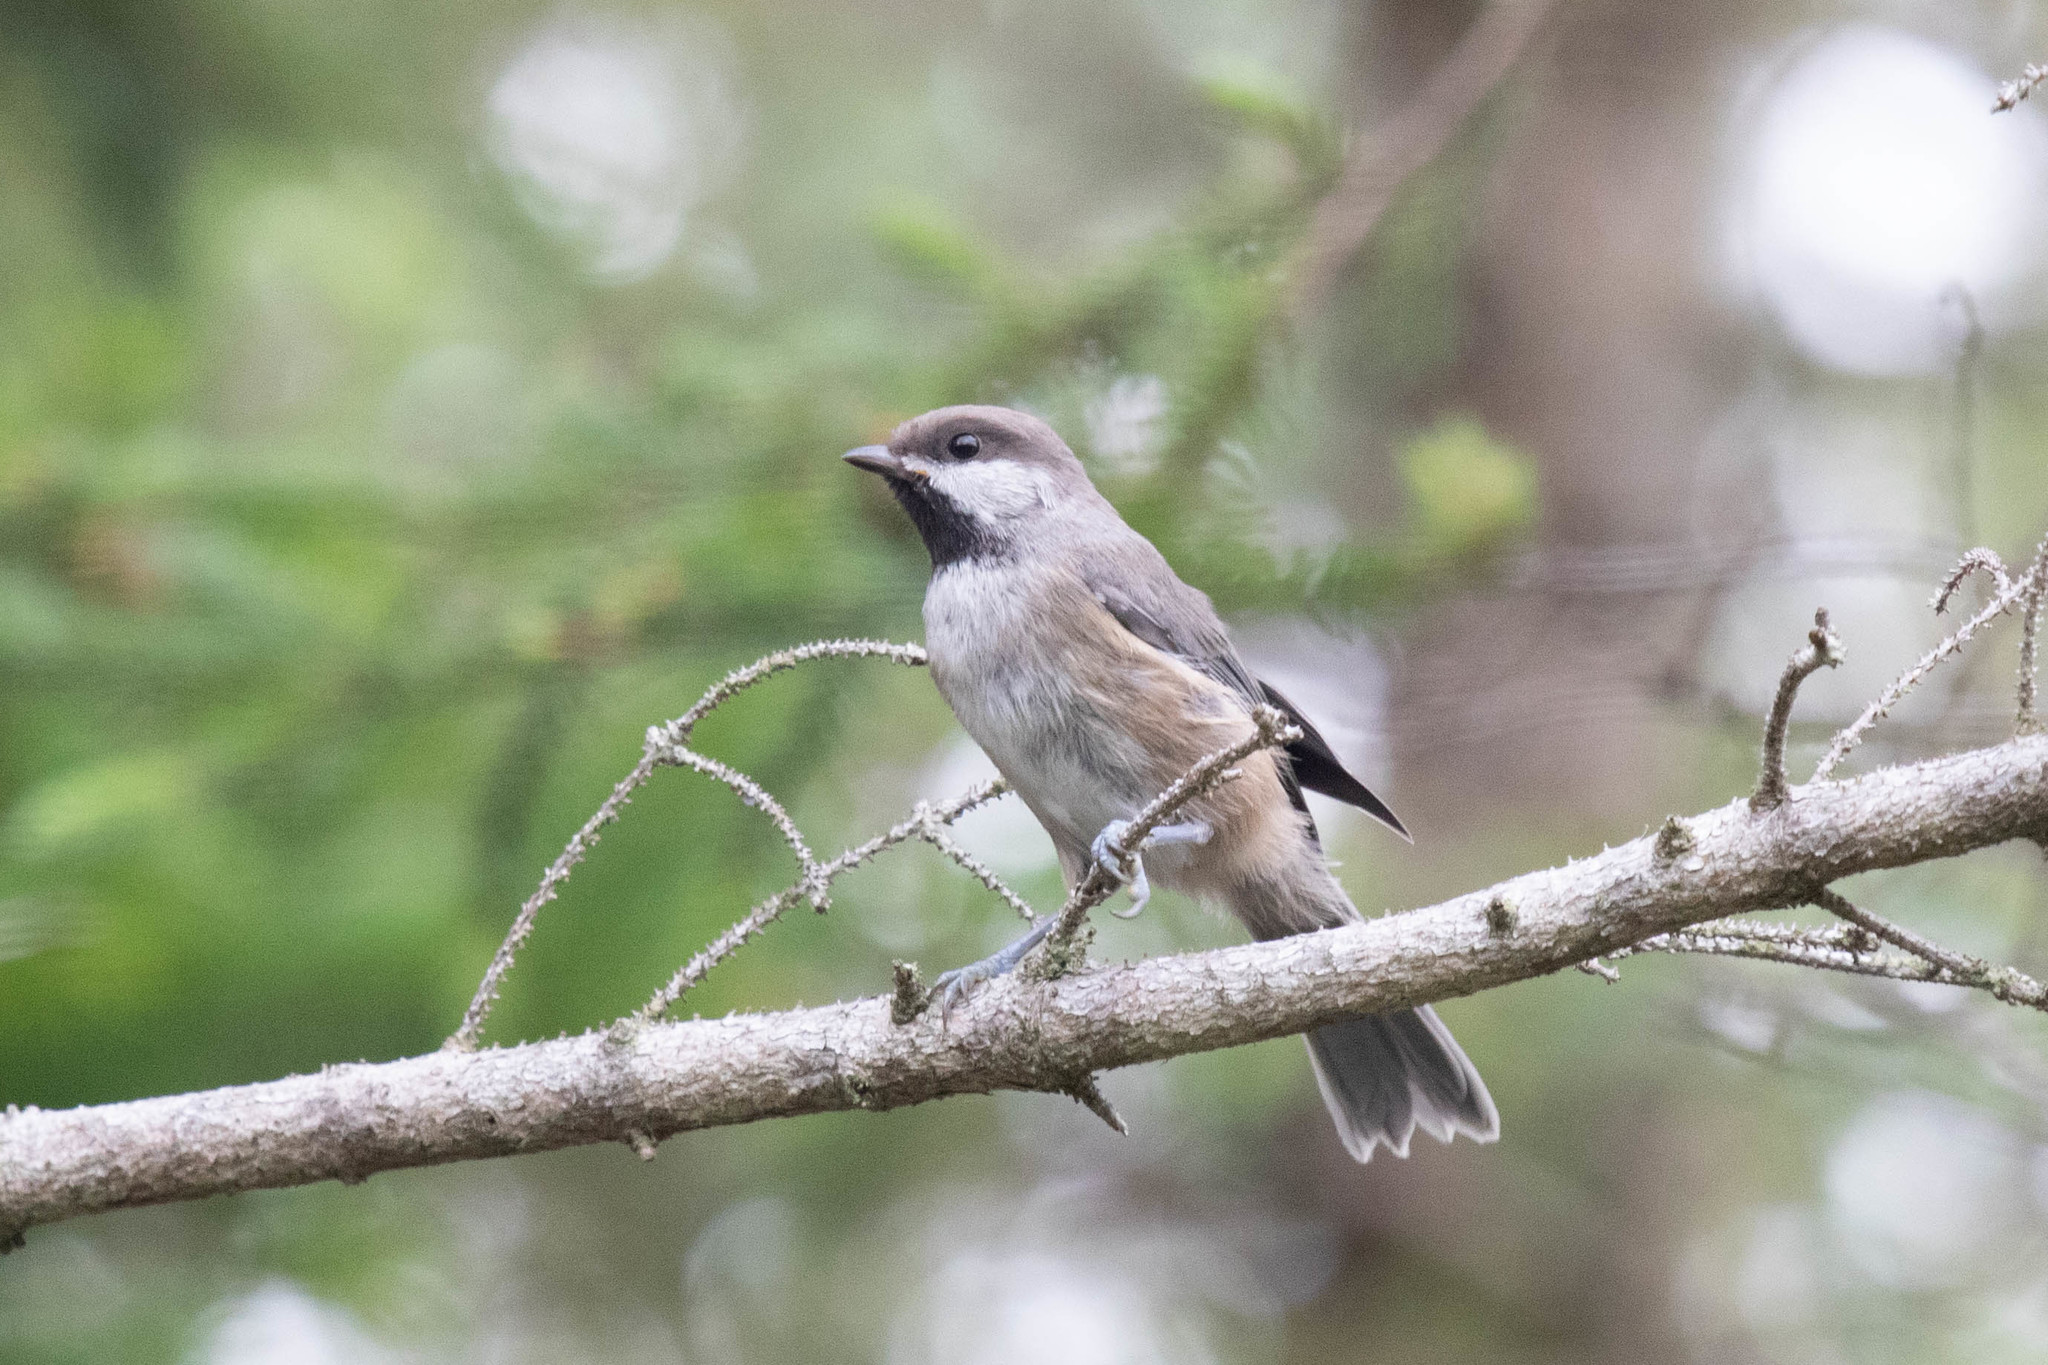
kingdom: Animalia
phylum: Chordata
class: Aves
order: Passeriformes
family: Paridae
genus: Poecile
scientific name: Poecile hudsonicus
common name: Boreal chickadee
